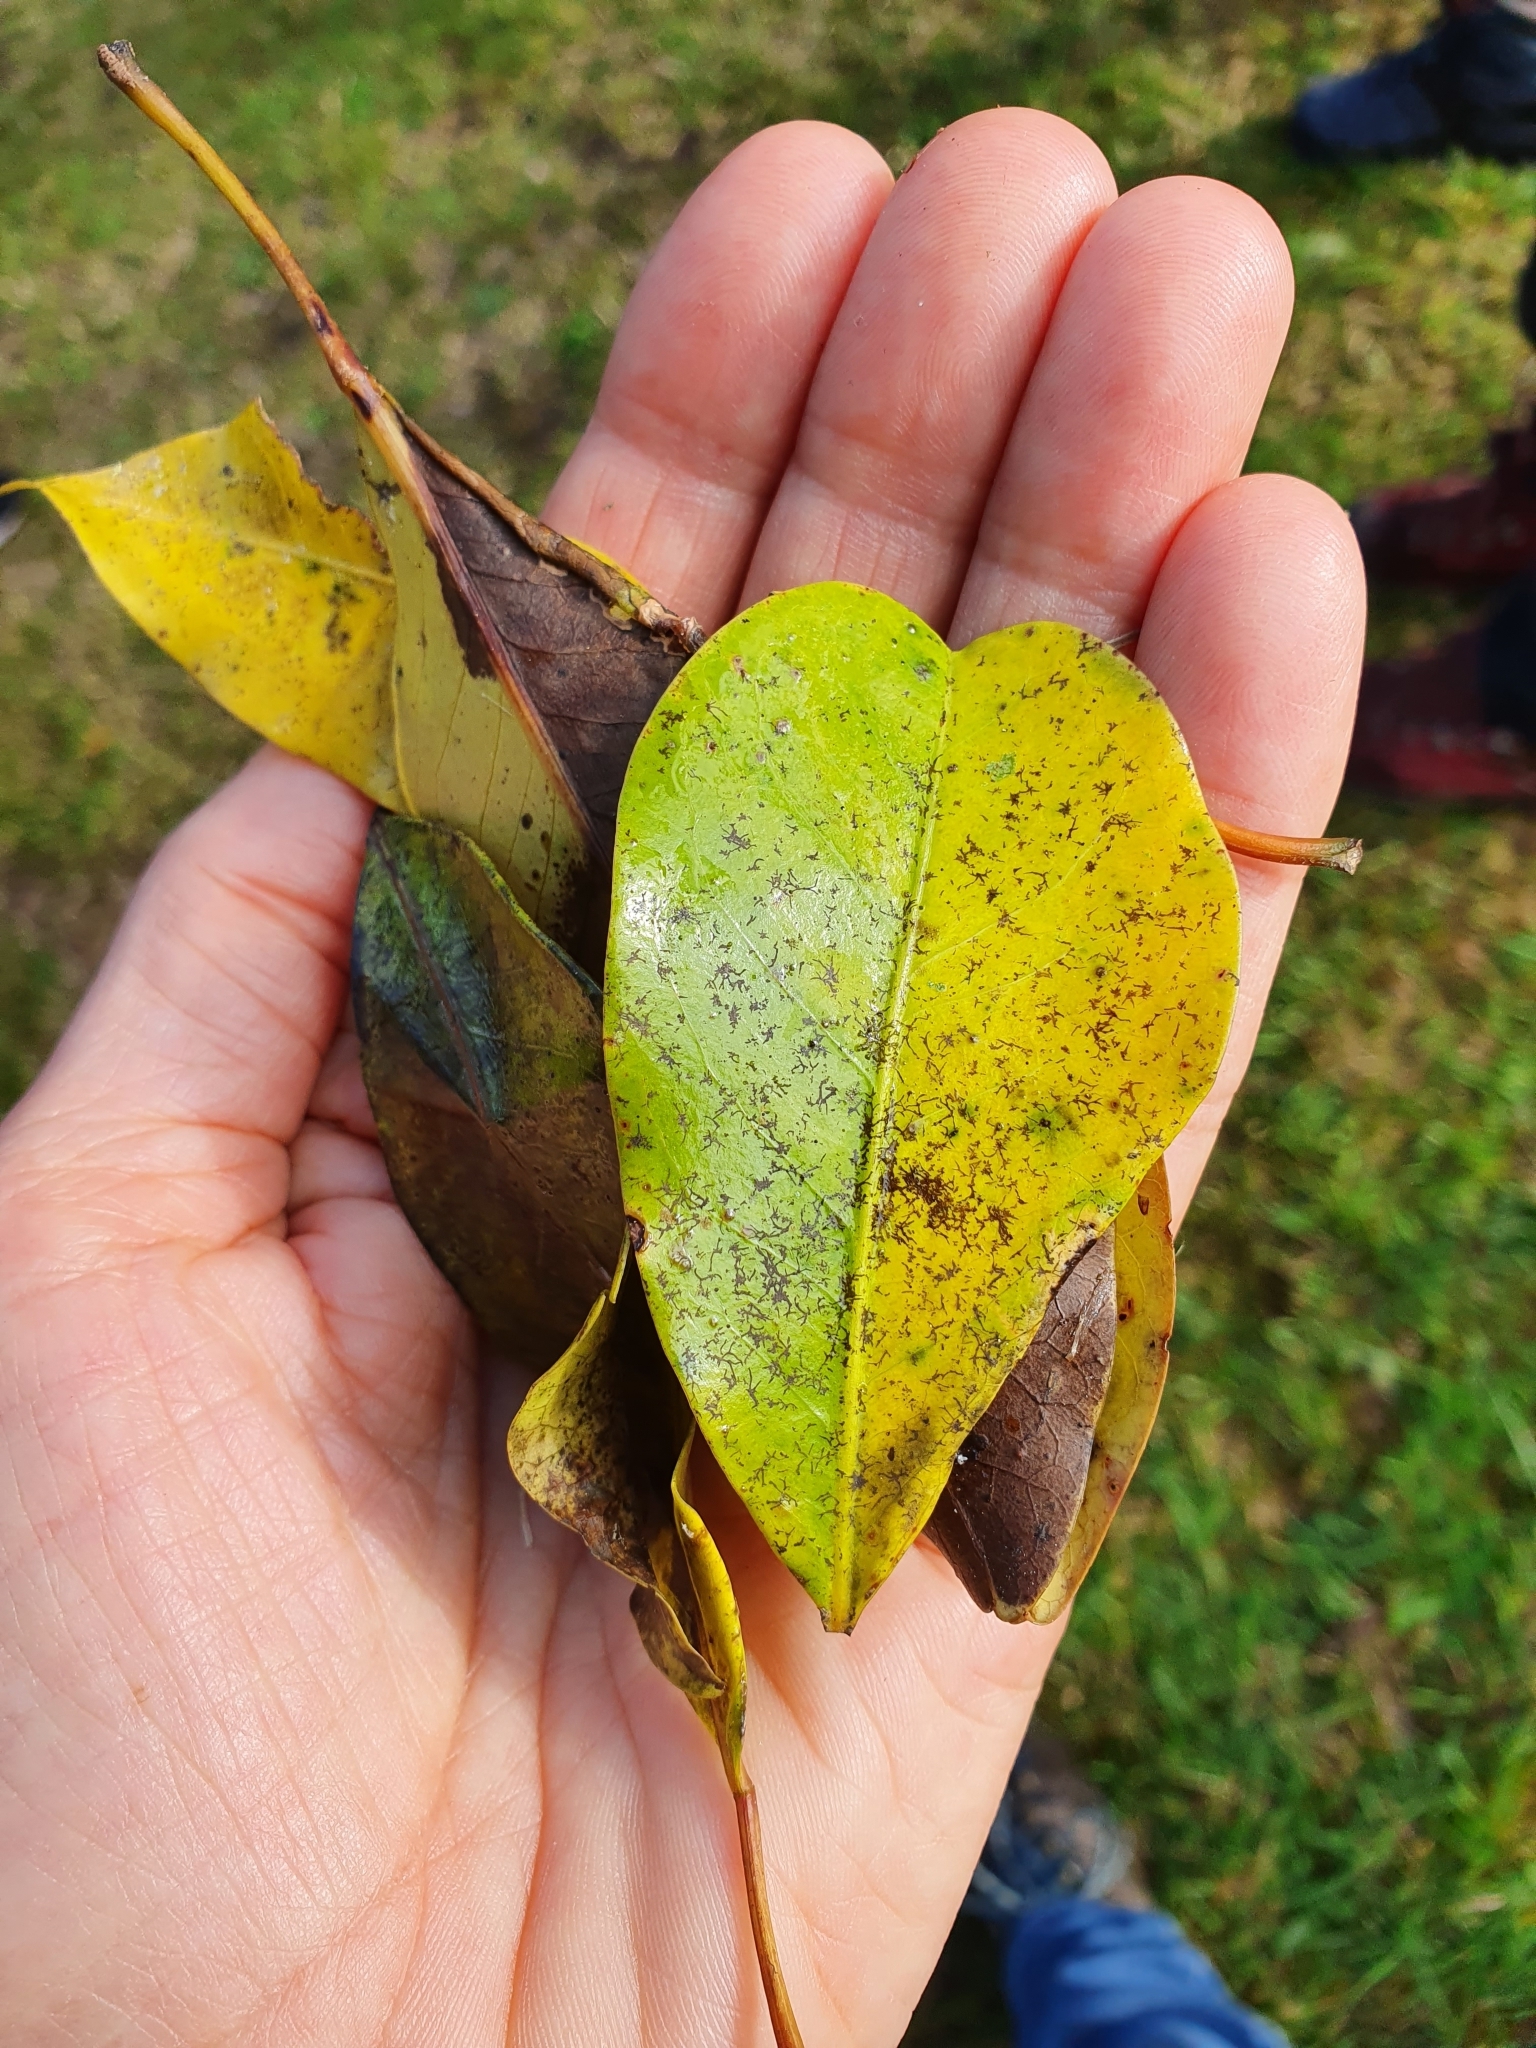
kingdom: Plantae
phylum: Tracheophyta
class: Magnoliopsida
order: Apiales
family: Araliaceae
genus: Raukaua
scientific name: Raukaua edgerleyi
